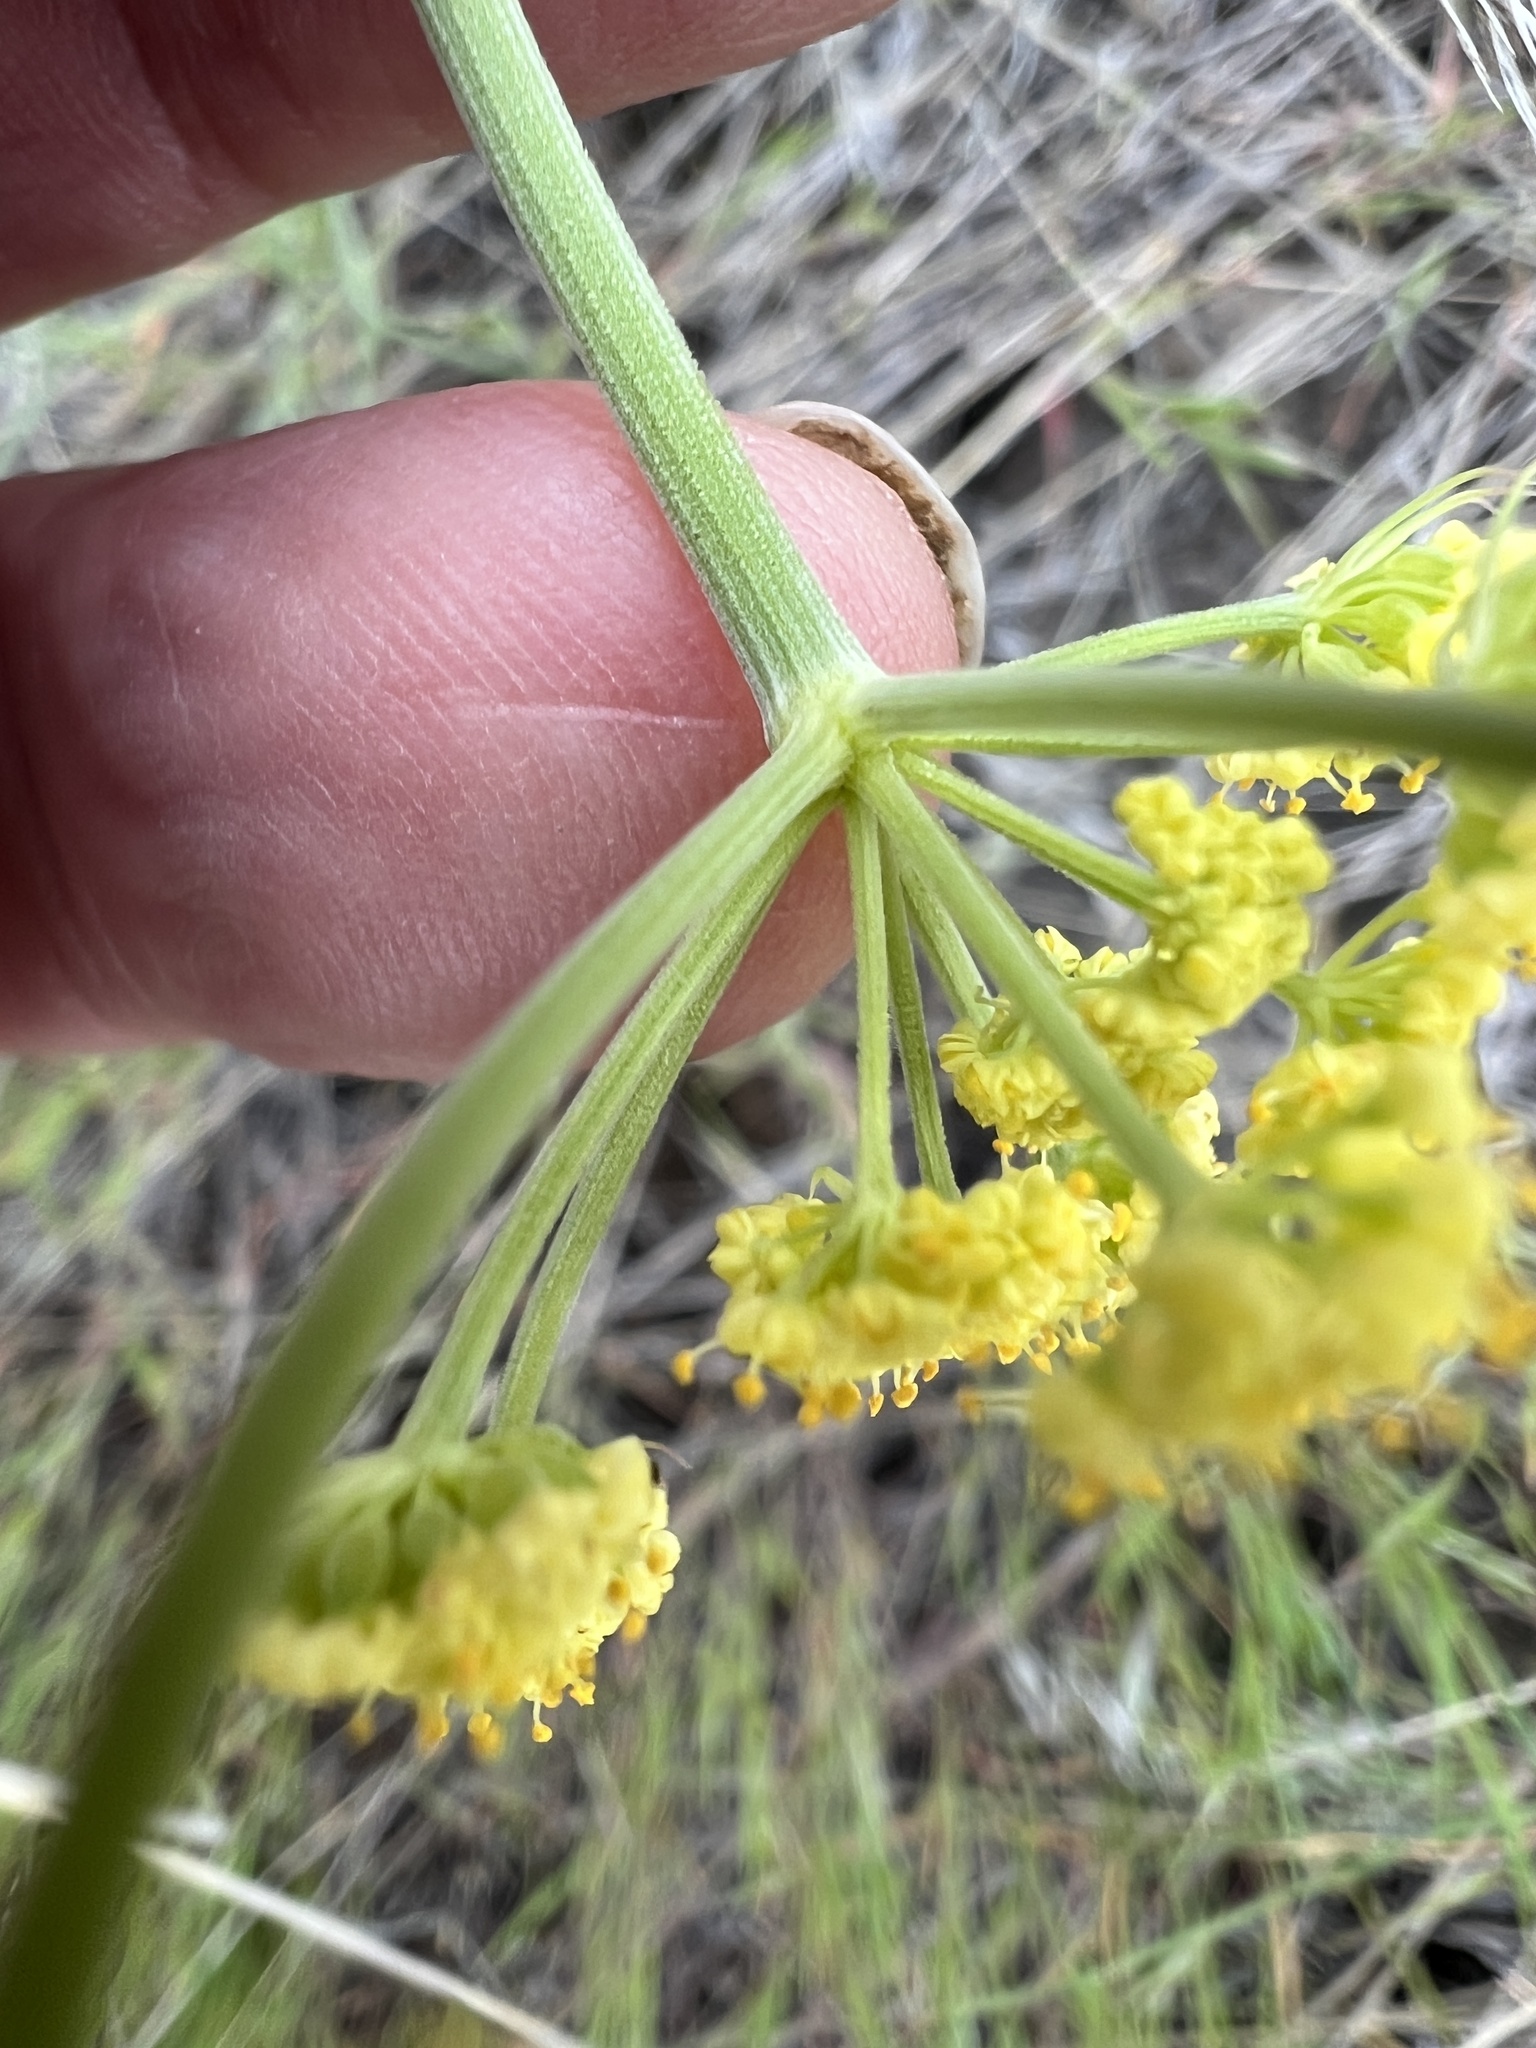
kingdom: Plantae
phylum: Tracheophyta
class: Magnoliopsida
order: Apiales
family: Apiaceae
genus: Lomatium
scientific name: Lomatium simplex
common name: Great basin biscuitroot
